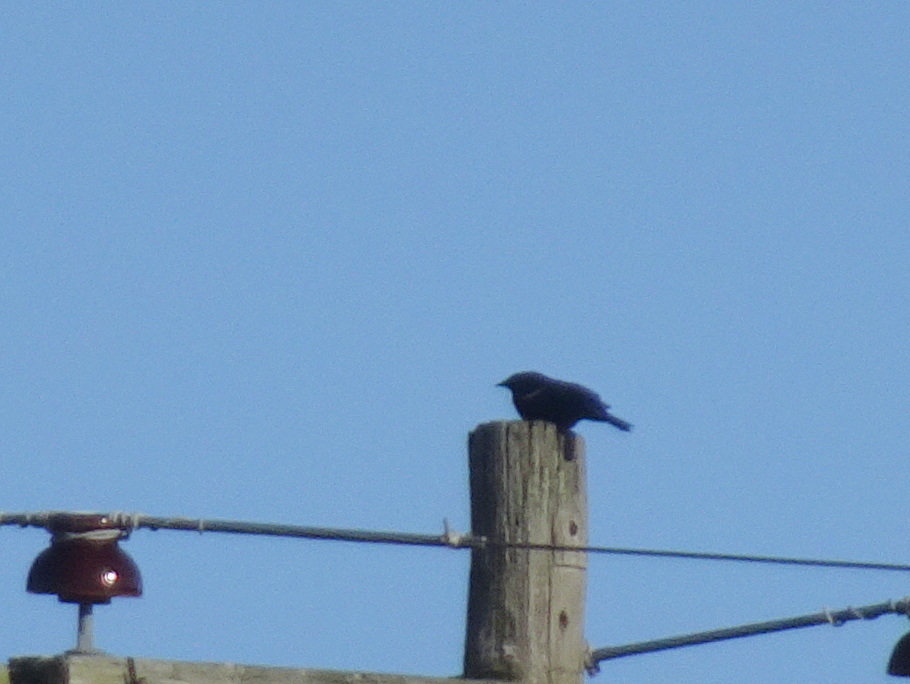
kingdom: Animalia
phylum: Chordata
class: Aves
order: Passeriformes
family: Icteridae
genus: Agelaius
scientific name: Agelaius phoeniceus
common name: Red-winged blackbird
